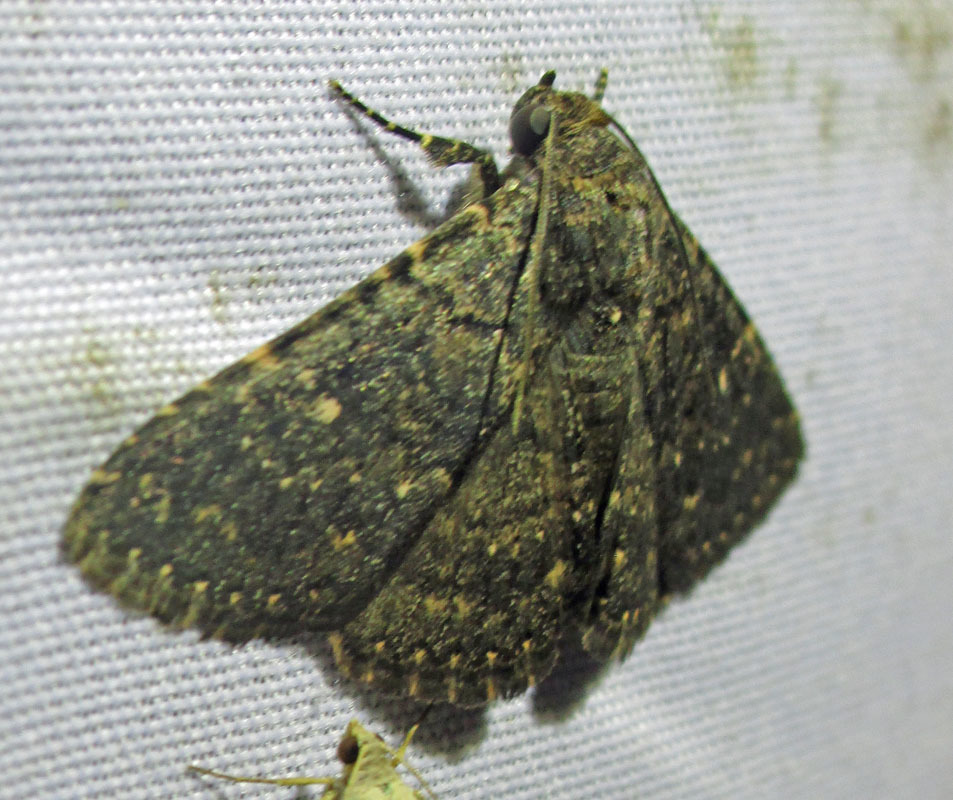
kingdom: Animalia
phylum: Arthropoda
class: Insecta
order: Lepidoptera
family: Erebidae
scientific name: Erebidae
